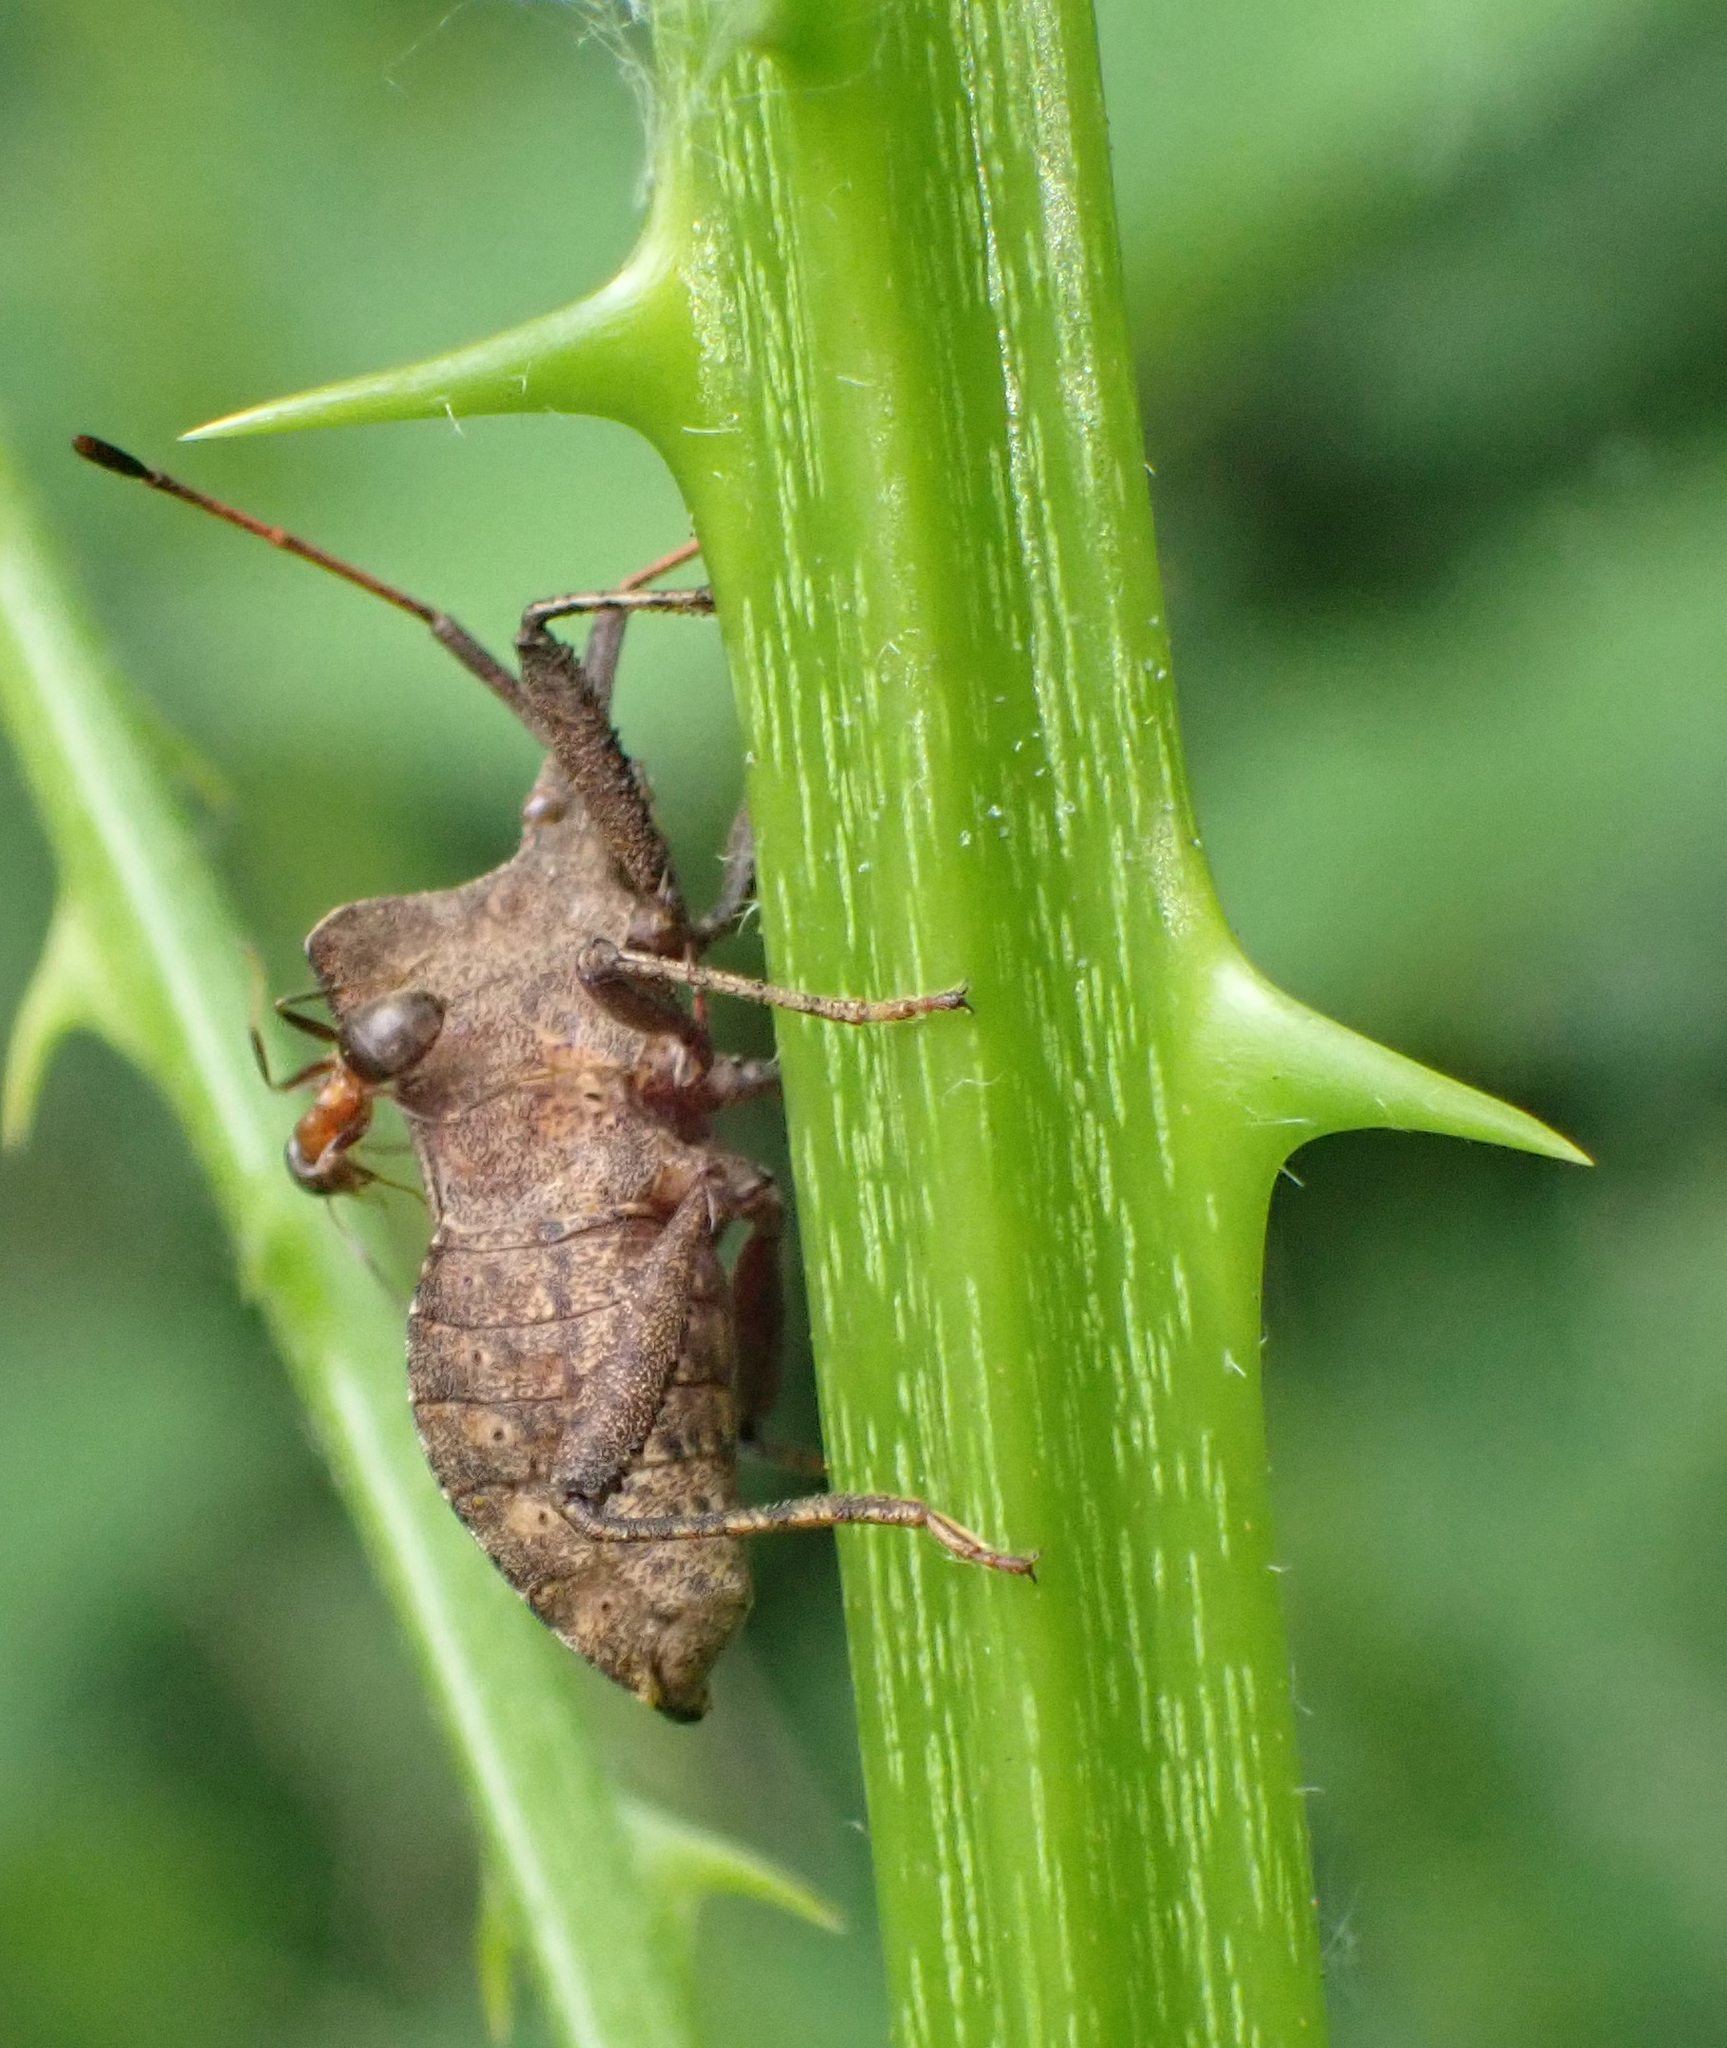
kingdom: Animalia
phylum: Arthropoda
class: Insecta
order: Hemiptera
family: Coreidae
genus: Coreus
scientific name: Coreus marginatus
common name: Dock bug
